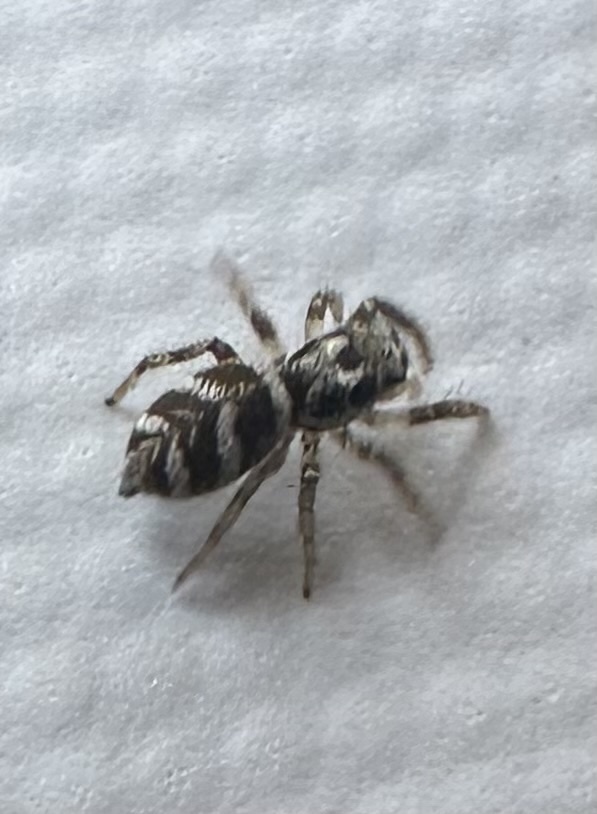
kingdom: Animalia
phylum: Arthropoda
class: Arachnida
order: Araneae
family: Salticidae
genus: Salticus
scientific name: Salticus scenicus
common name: Zebra jumper
